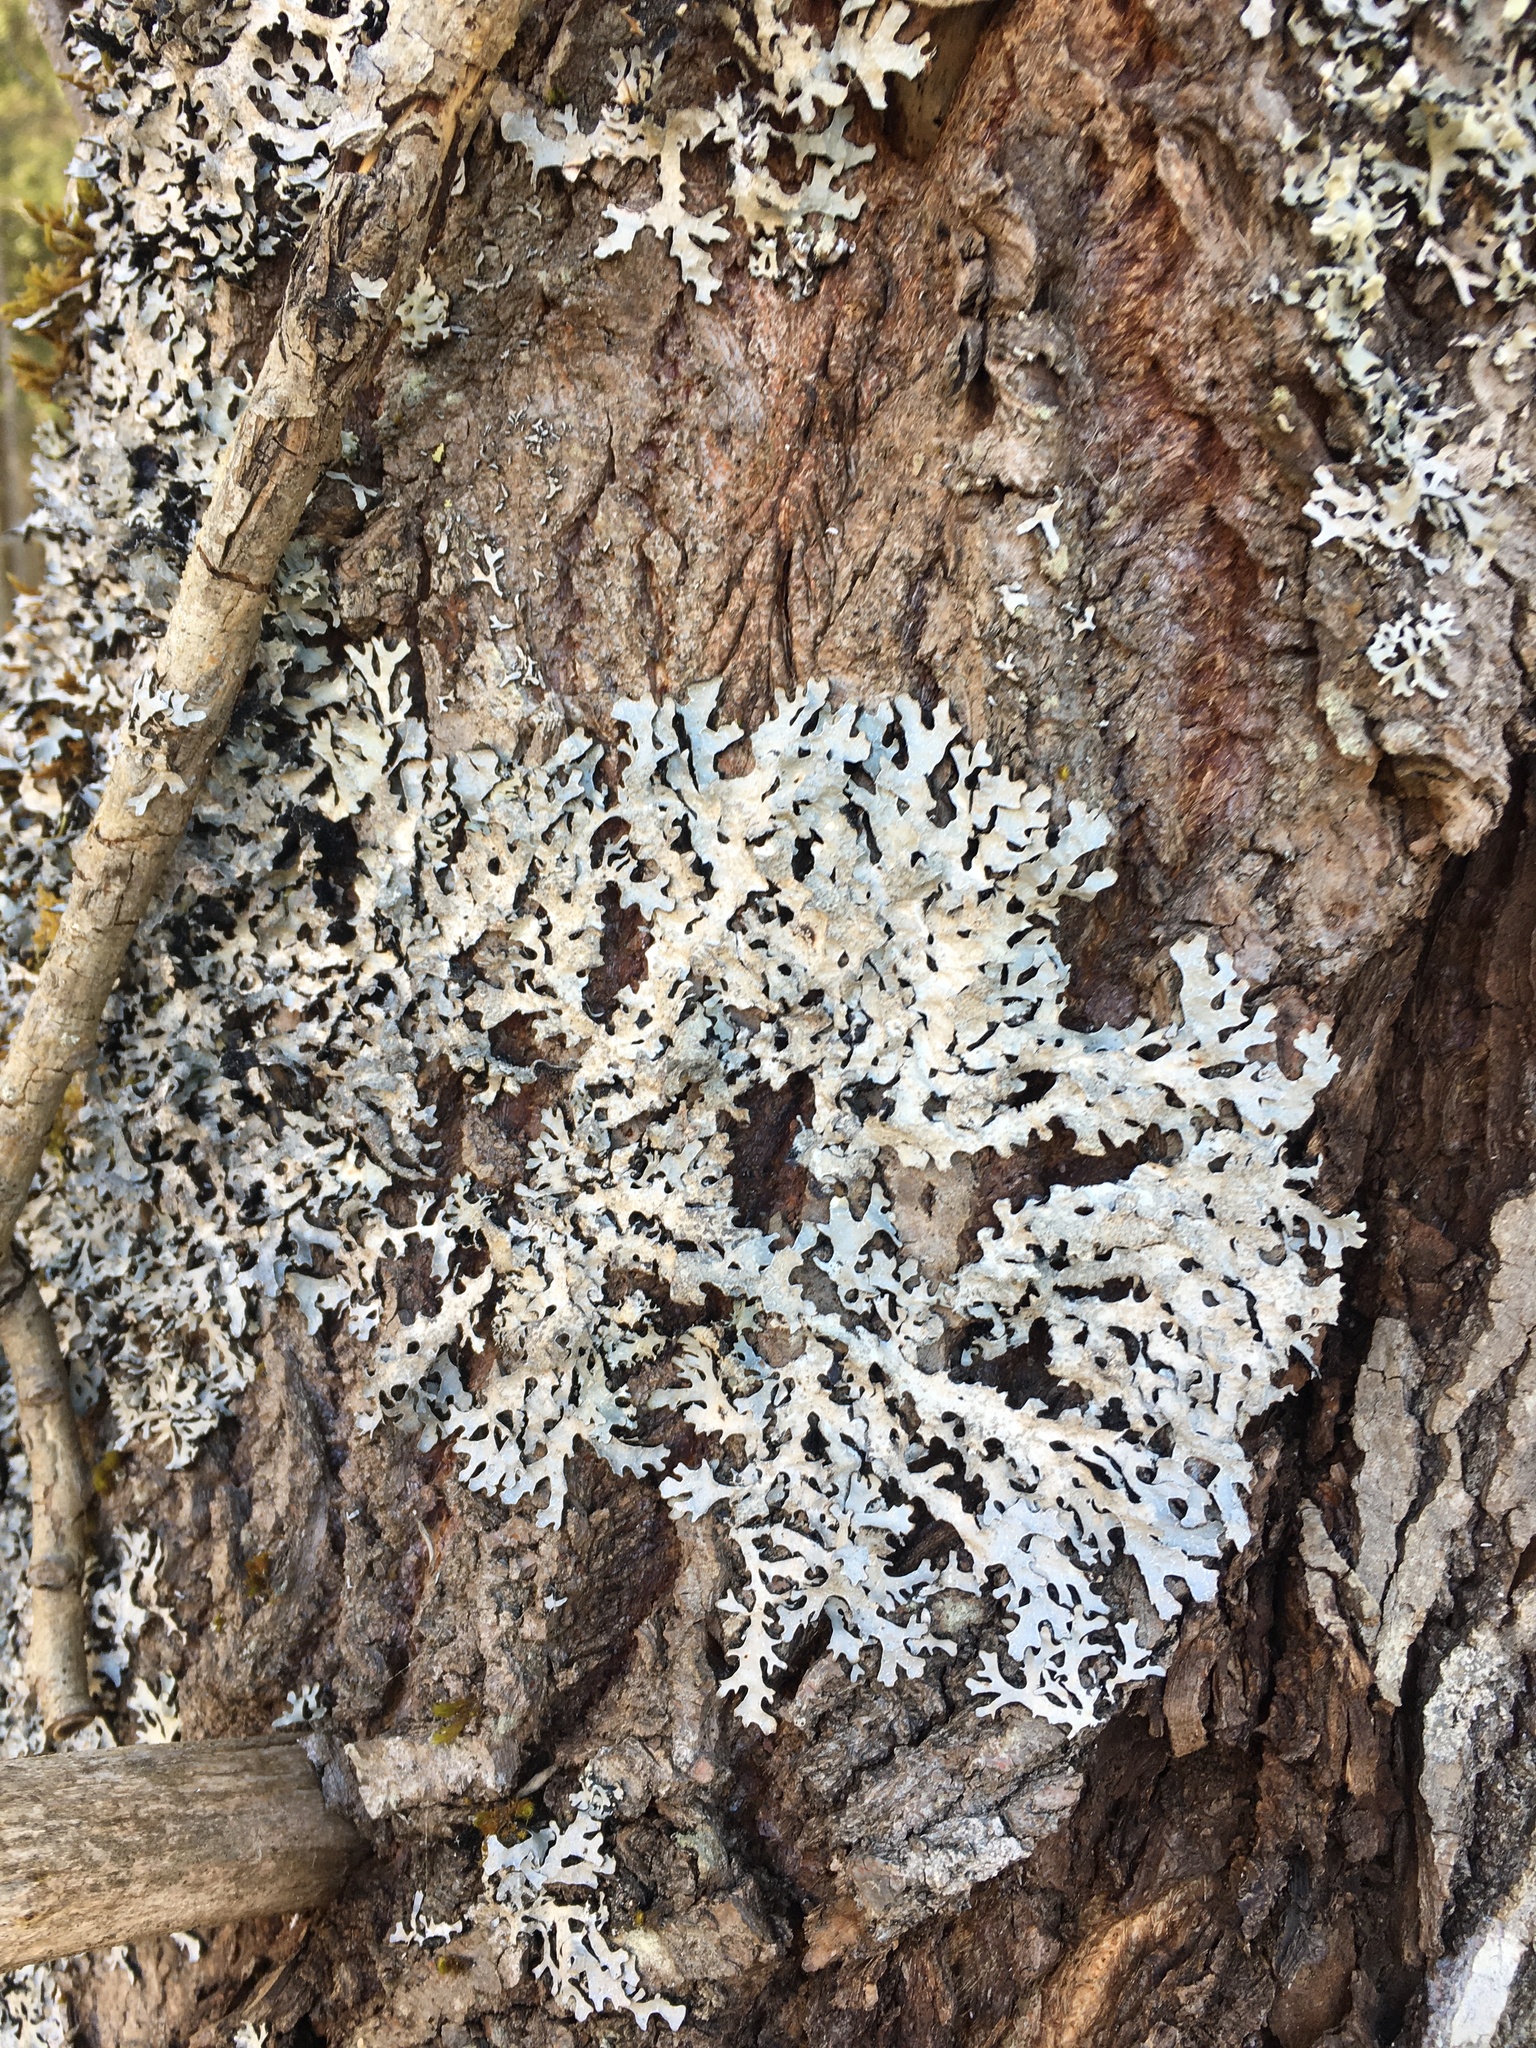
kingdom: Fungi
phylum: Ascomycota
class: Lecanoromycetes
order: Lecanorales
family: Parmeliaceae
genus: Parmelia
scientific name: Parmelia sulcata
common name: Netted shield lichen
